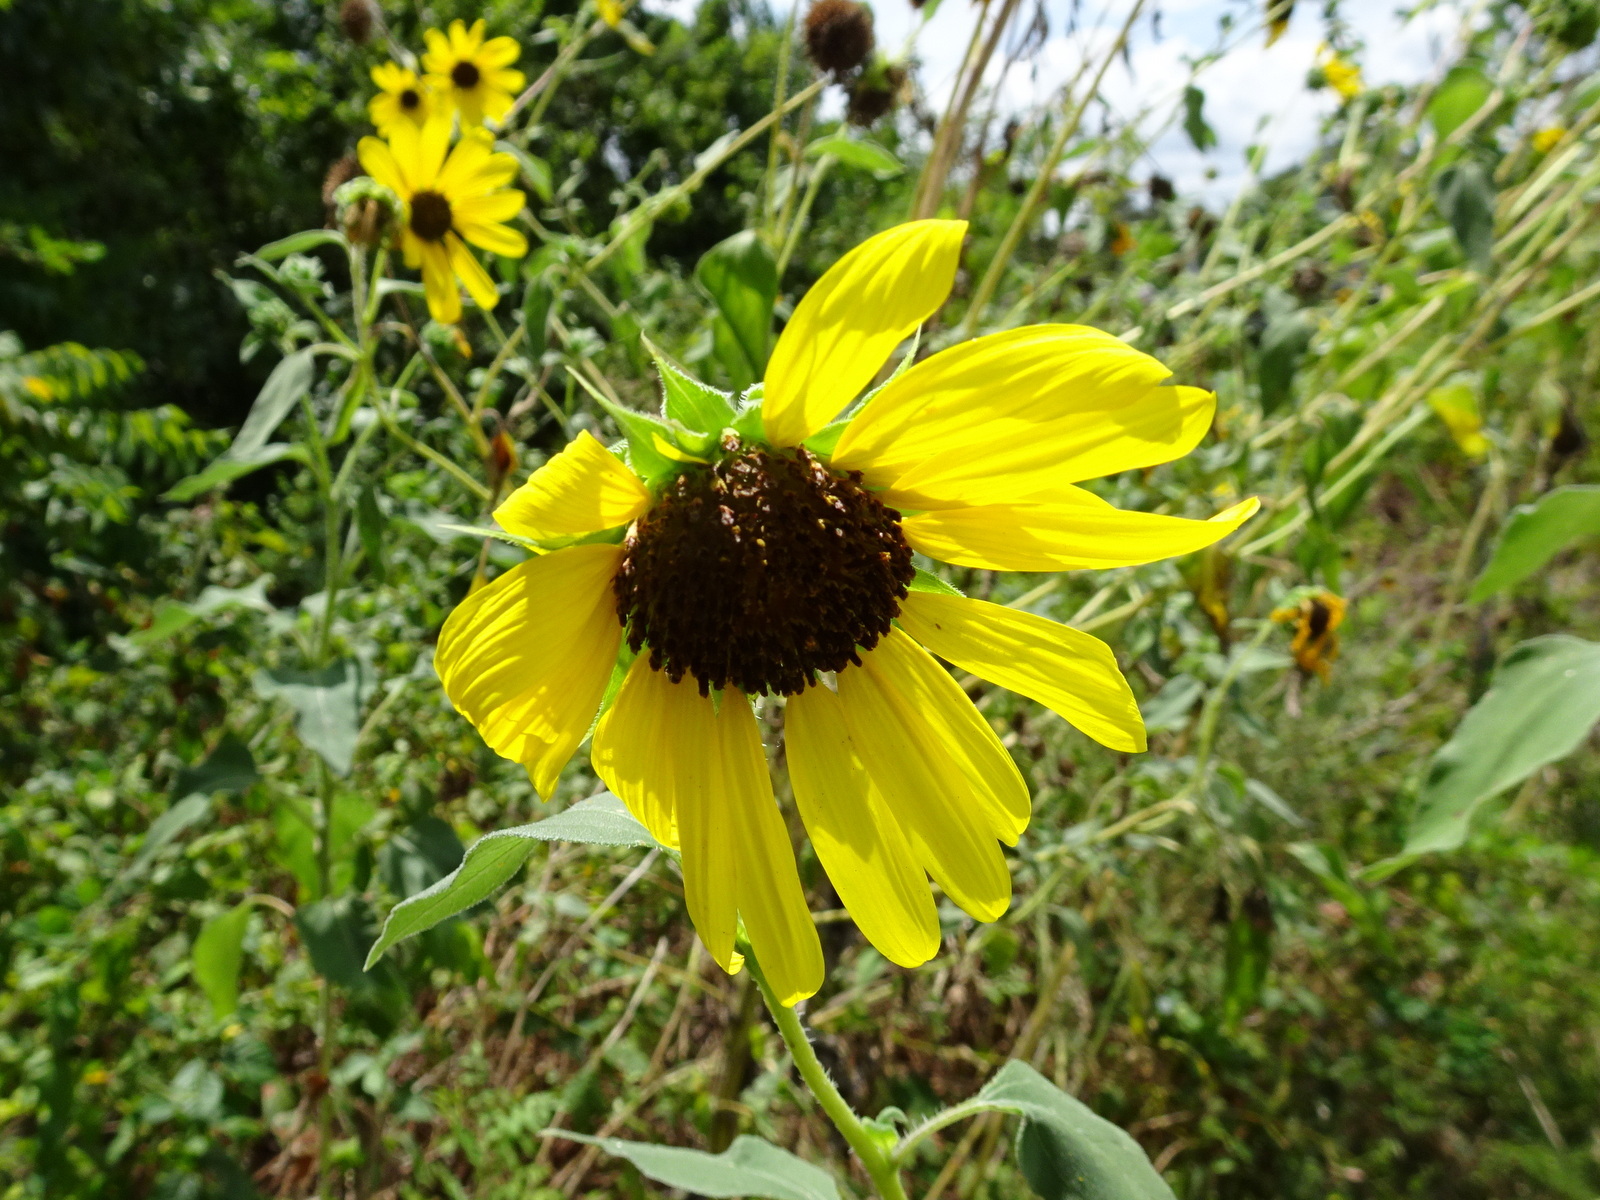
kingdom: Plantae
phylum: Tracheophyta
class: Magnoliopsida
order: Asterales
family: Asteraceae
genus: Helianthus
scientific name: Helianthus annuus
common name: Sunflower
